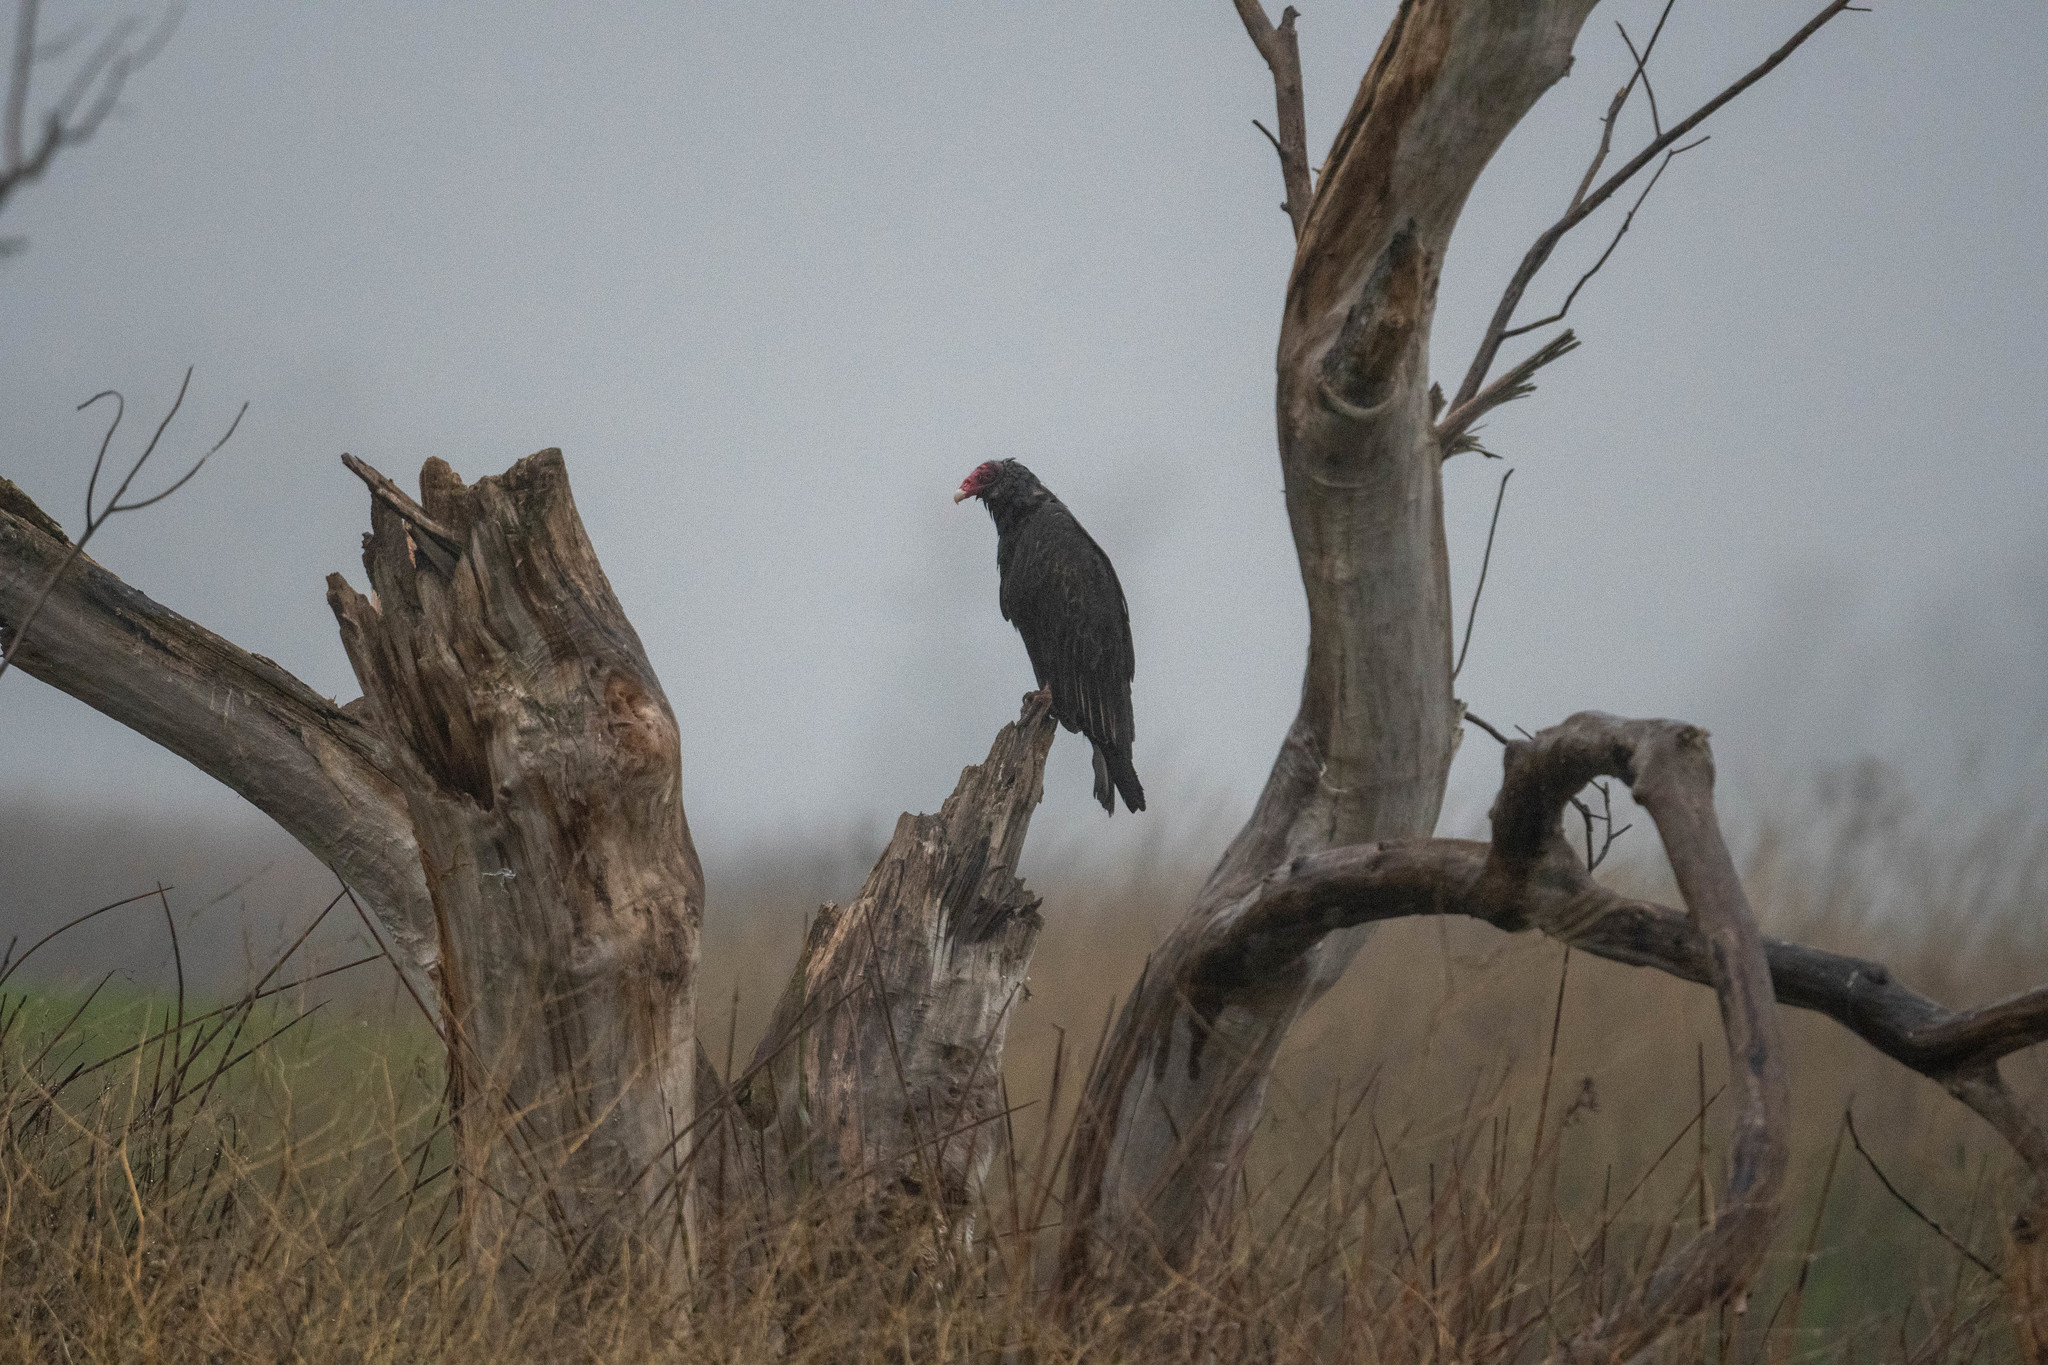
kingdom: Animalia
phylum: Chordata
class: Aves
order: Accipitriformes
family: Cathartidae
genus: Cathartes
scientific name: Cathartes aura
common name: Turkey vulture
